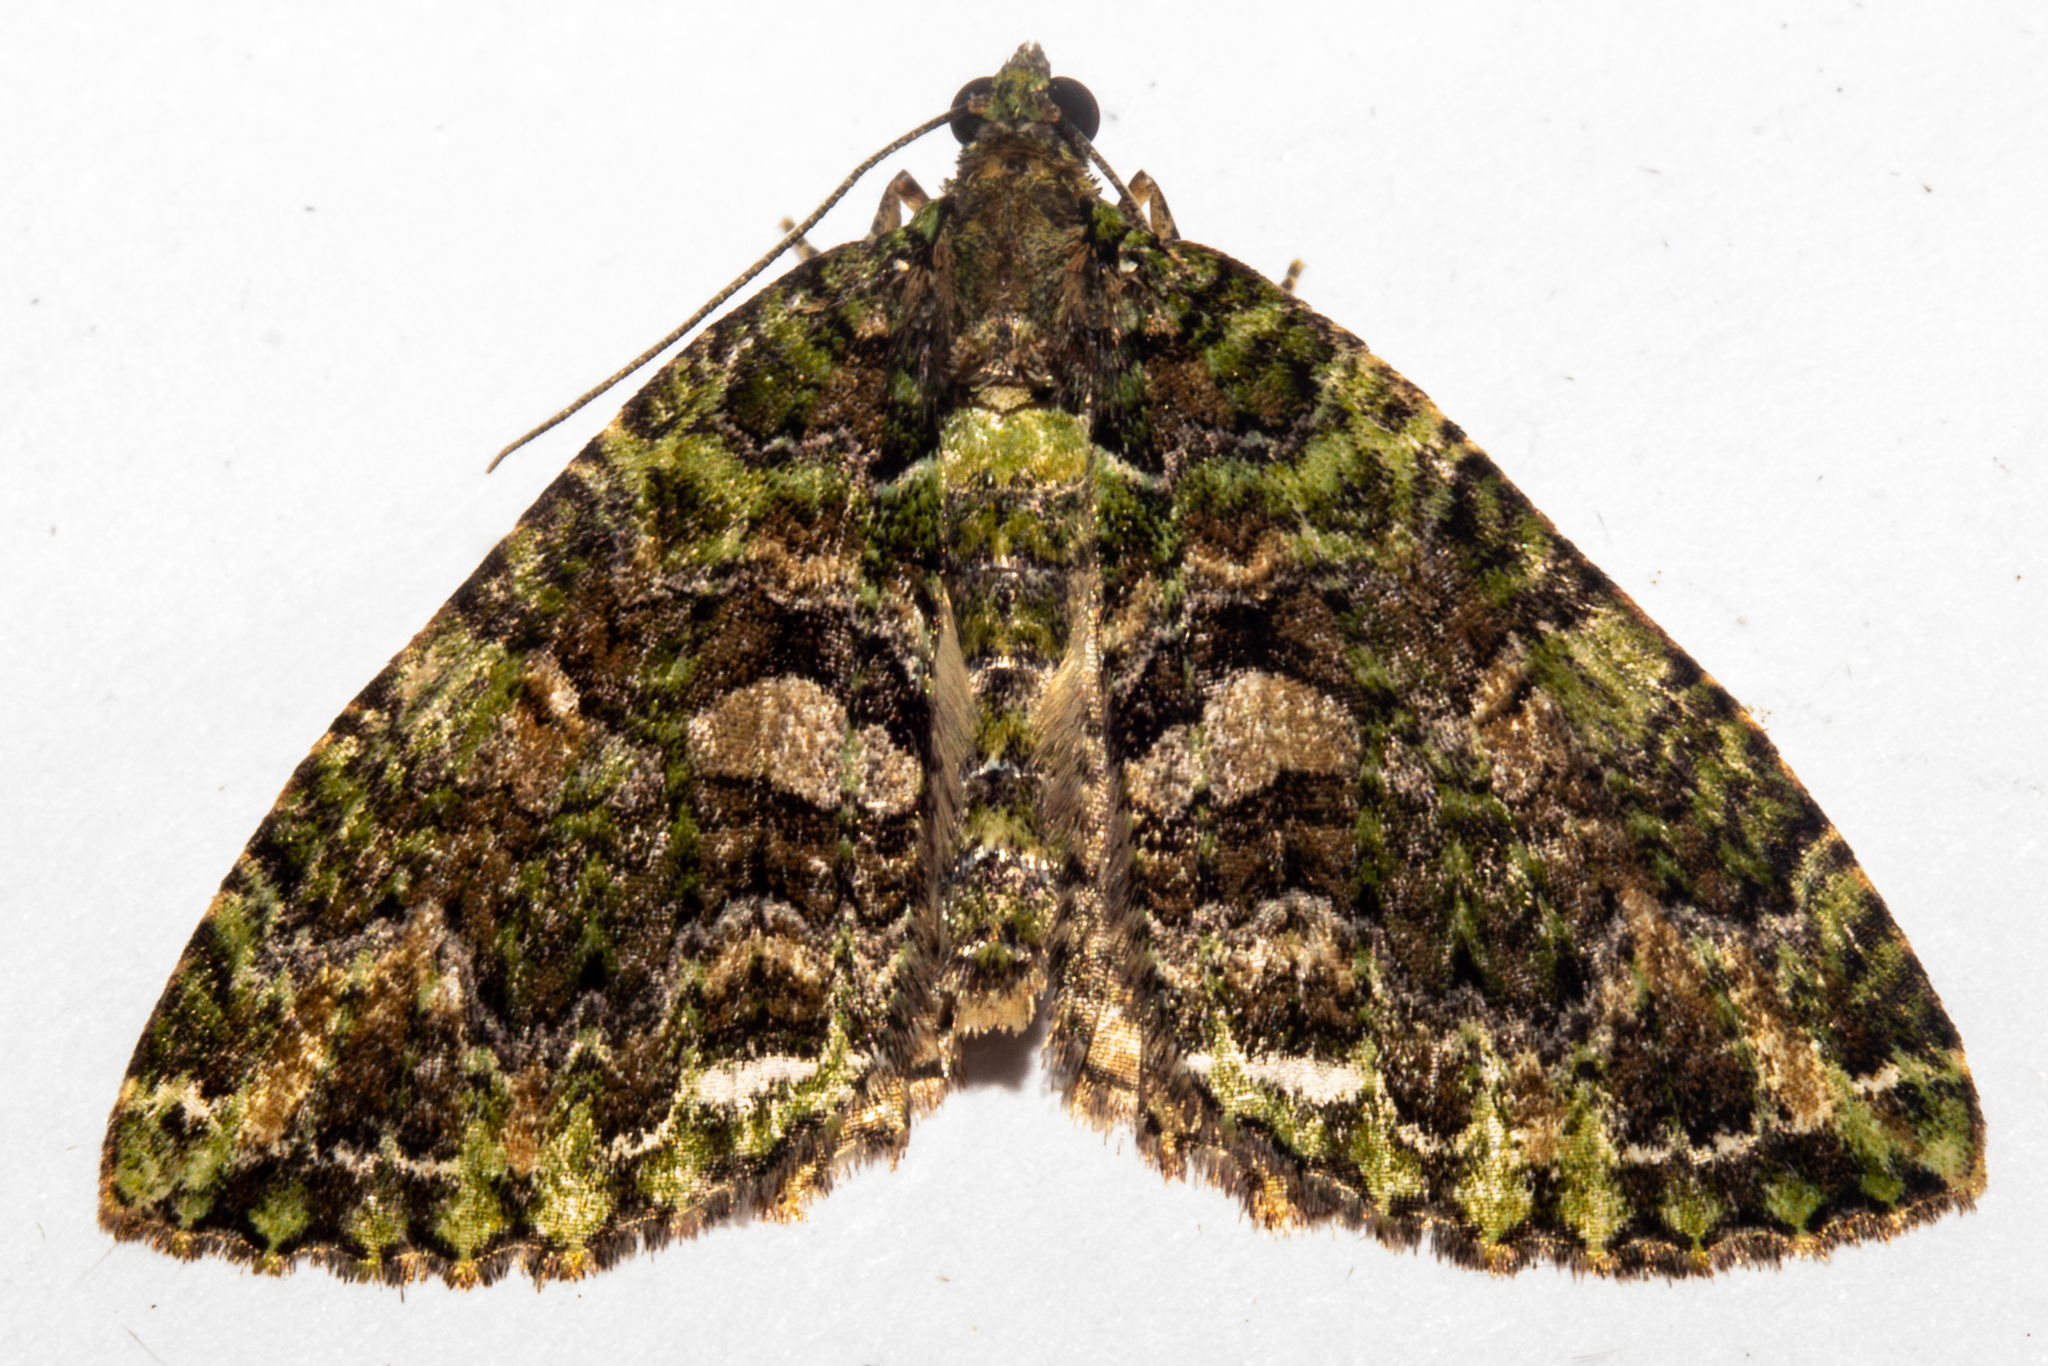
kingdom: Animalia
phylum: Arthropoda
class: Insecta
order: Lepidoptera
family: Geometridae
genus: Austrocidaria
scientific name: Austrocidaria similata
